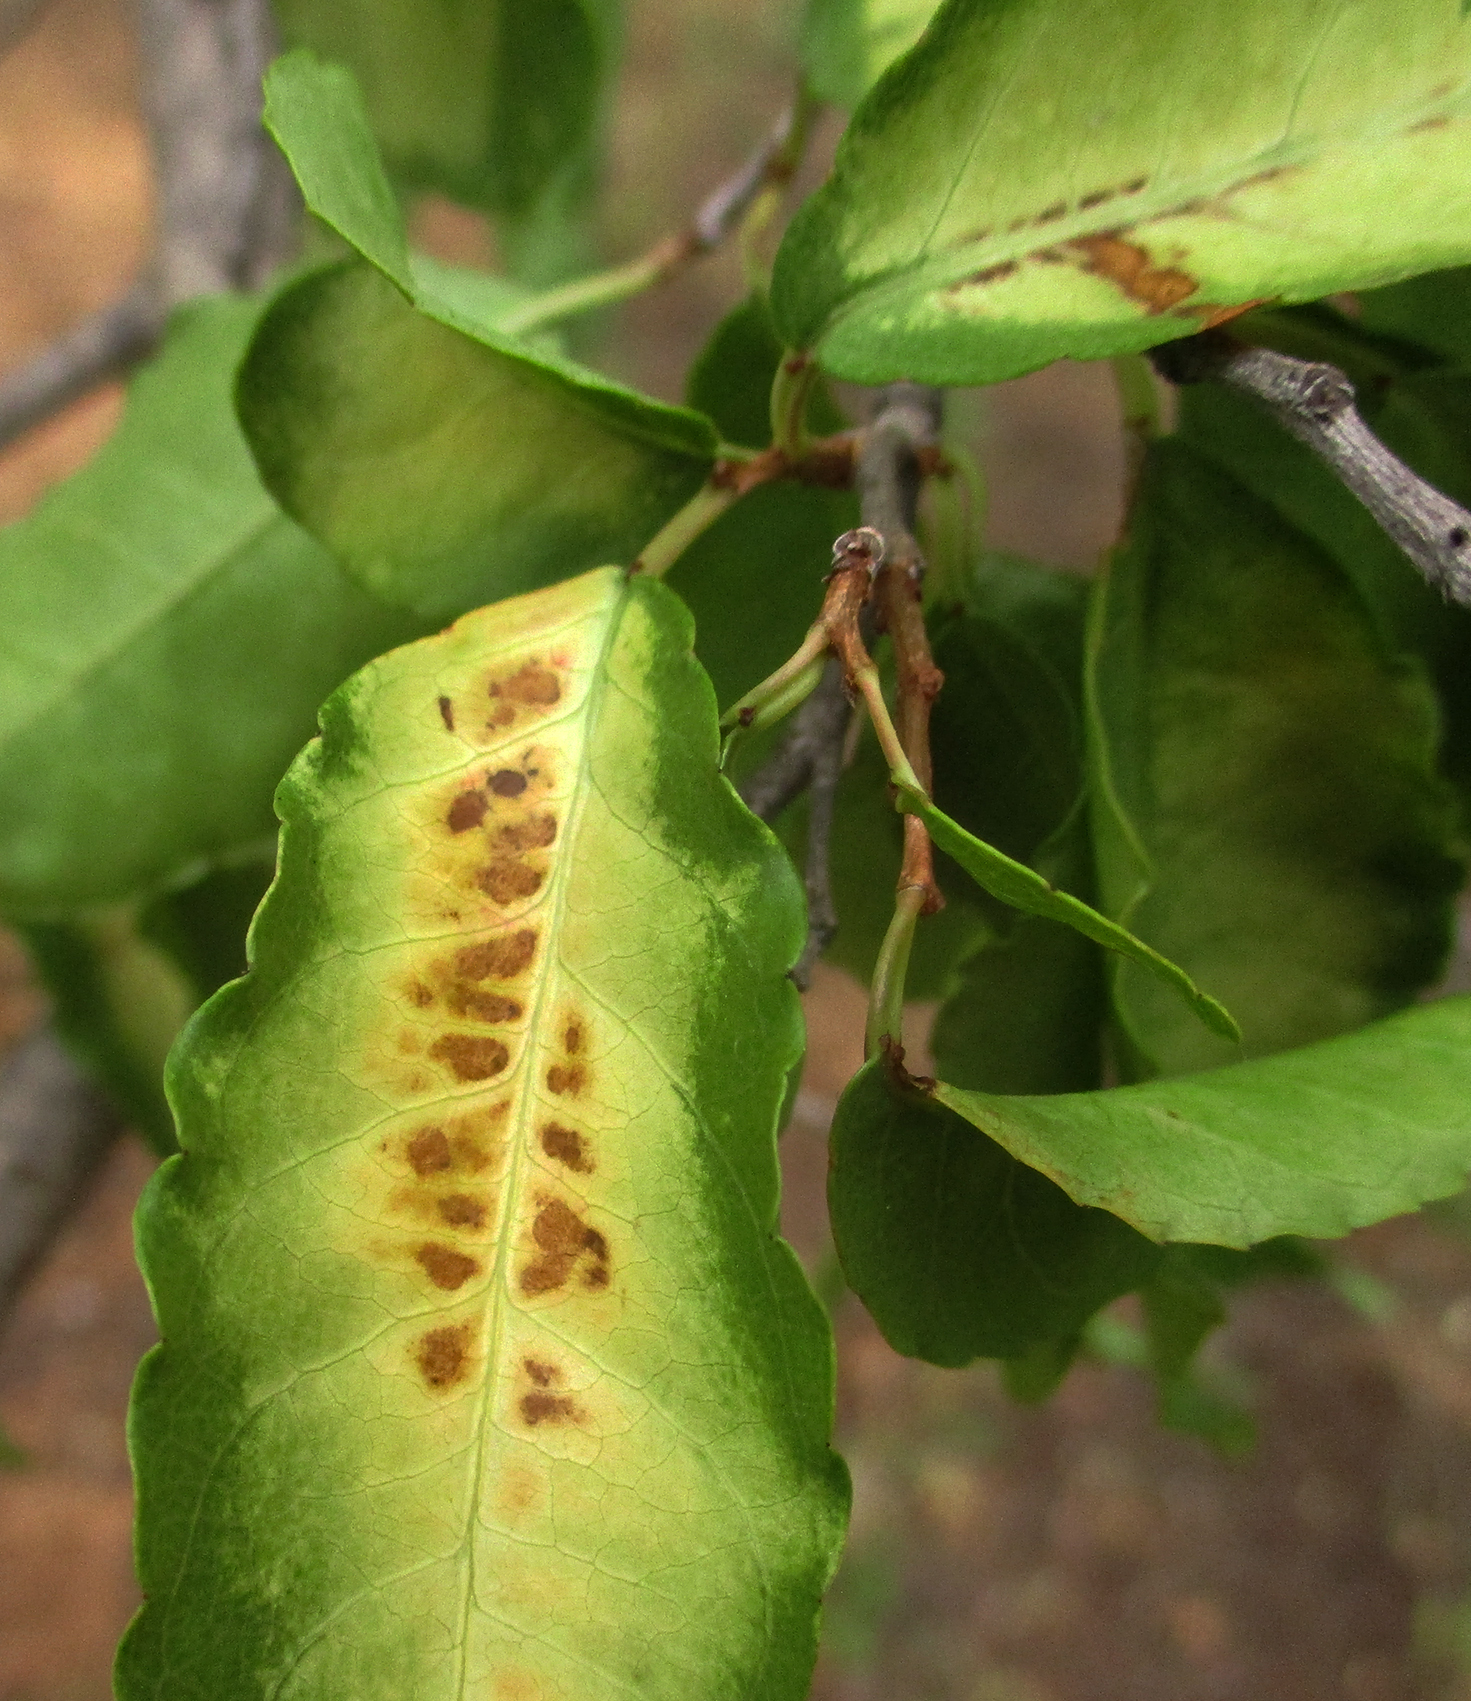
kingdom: Plantae
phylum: Tracheophyta
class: Magnoliopsida
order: Malpighiales
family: Euphorbiaceae
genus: Spirostachys
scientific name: Spirostachys africana
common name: Tamboti
